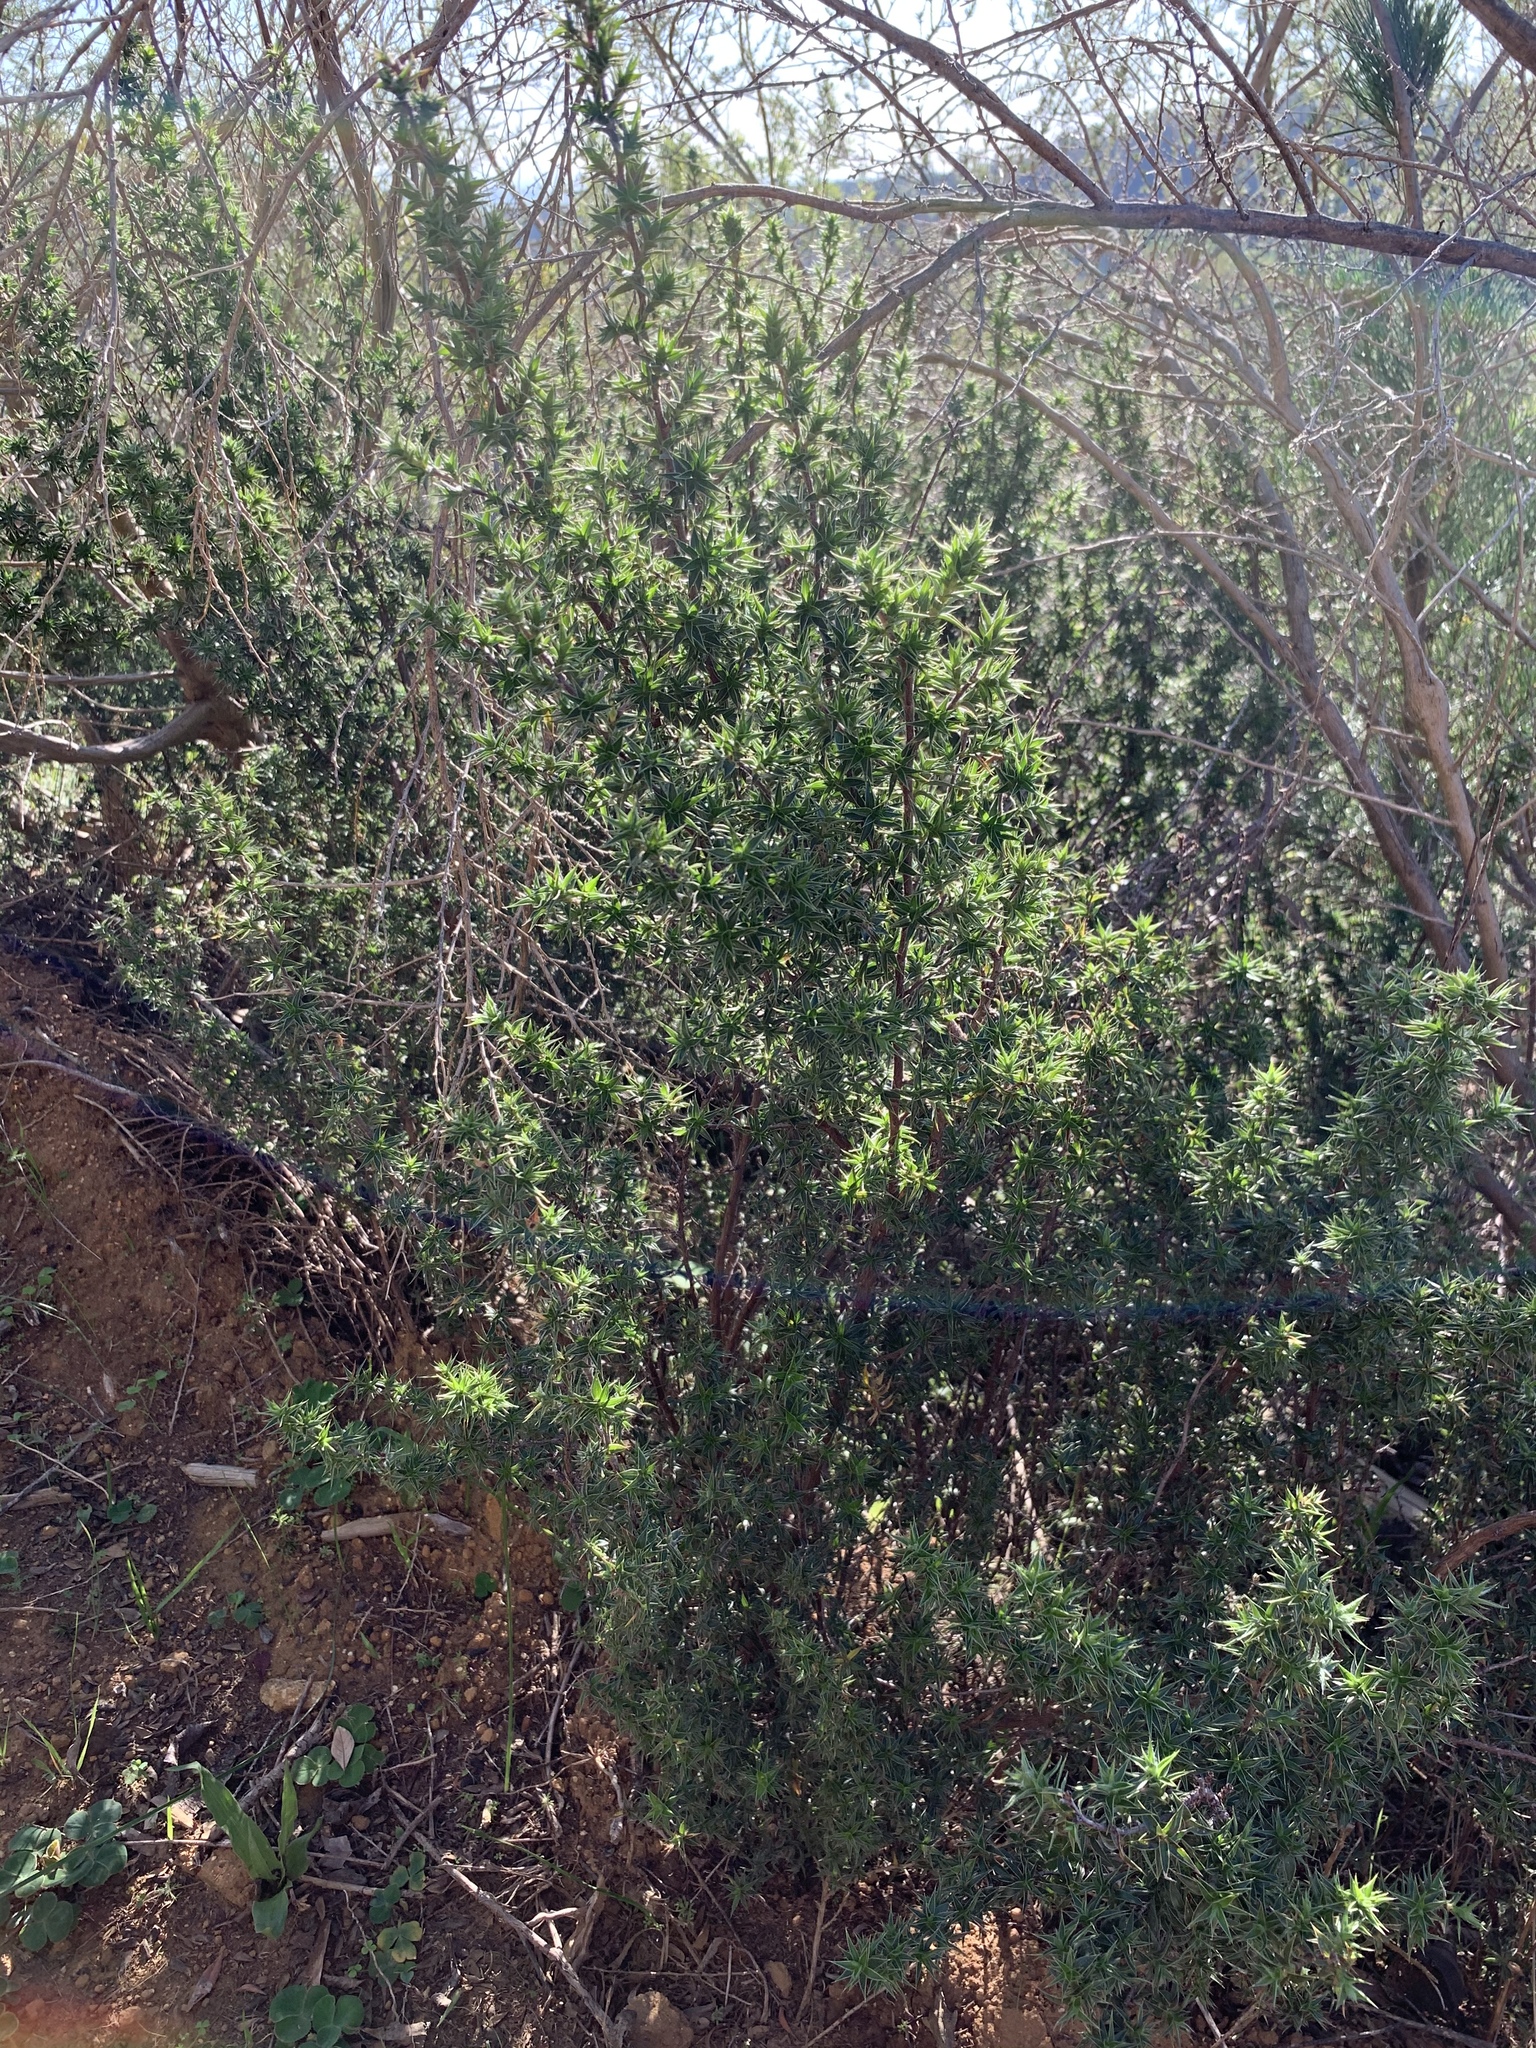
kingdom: Plantae
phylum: Tracheophyta
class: Magnoliopsida
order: Rosales
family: Rosaceae
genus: Cliffortia
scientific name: Cliffortia ruscifolia
